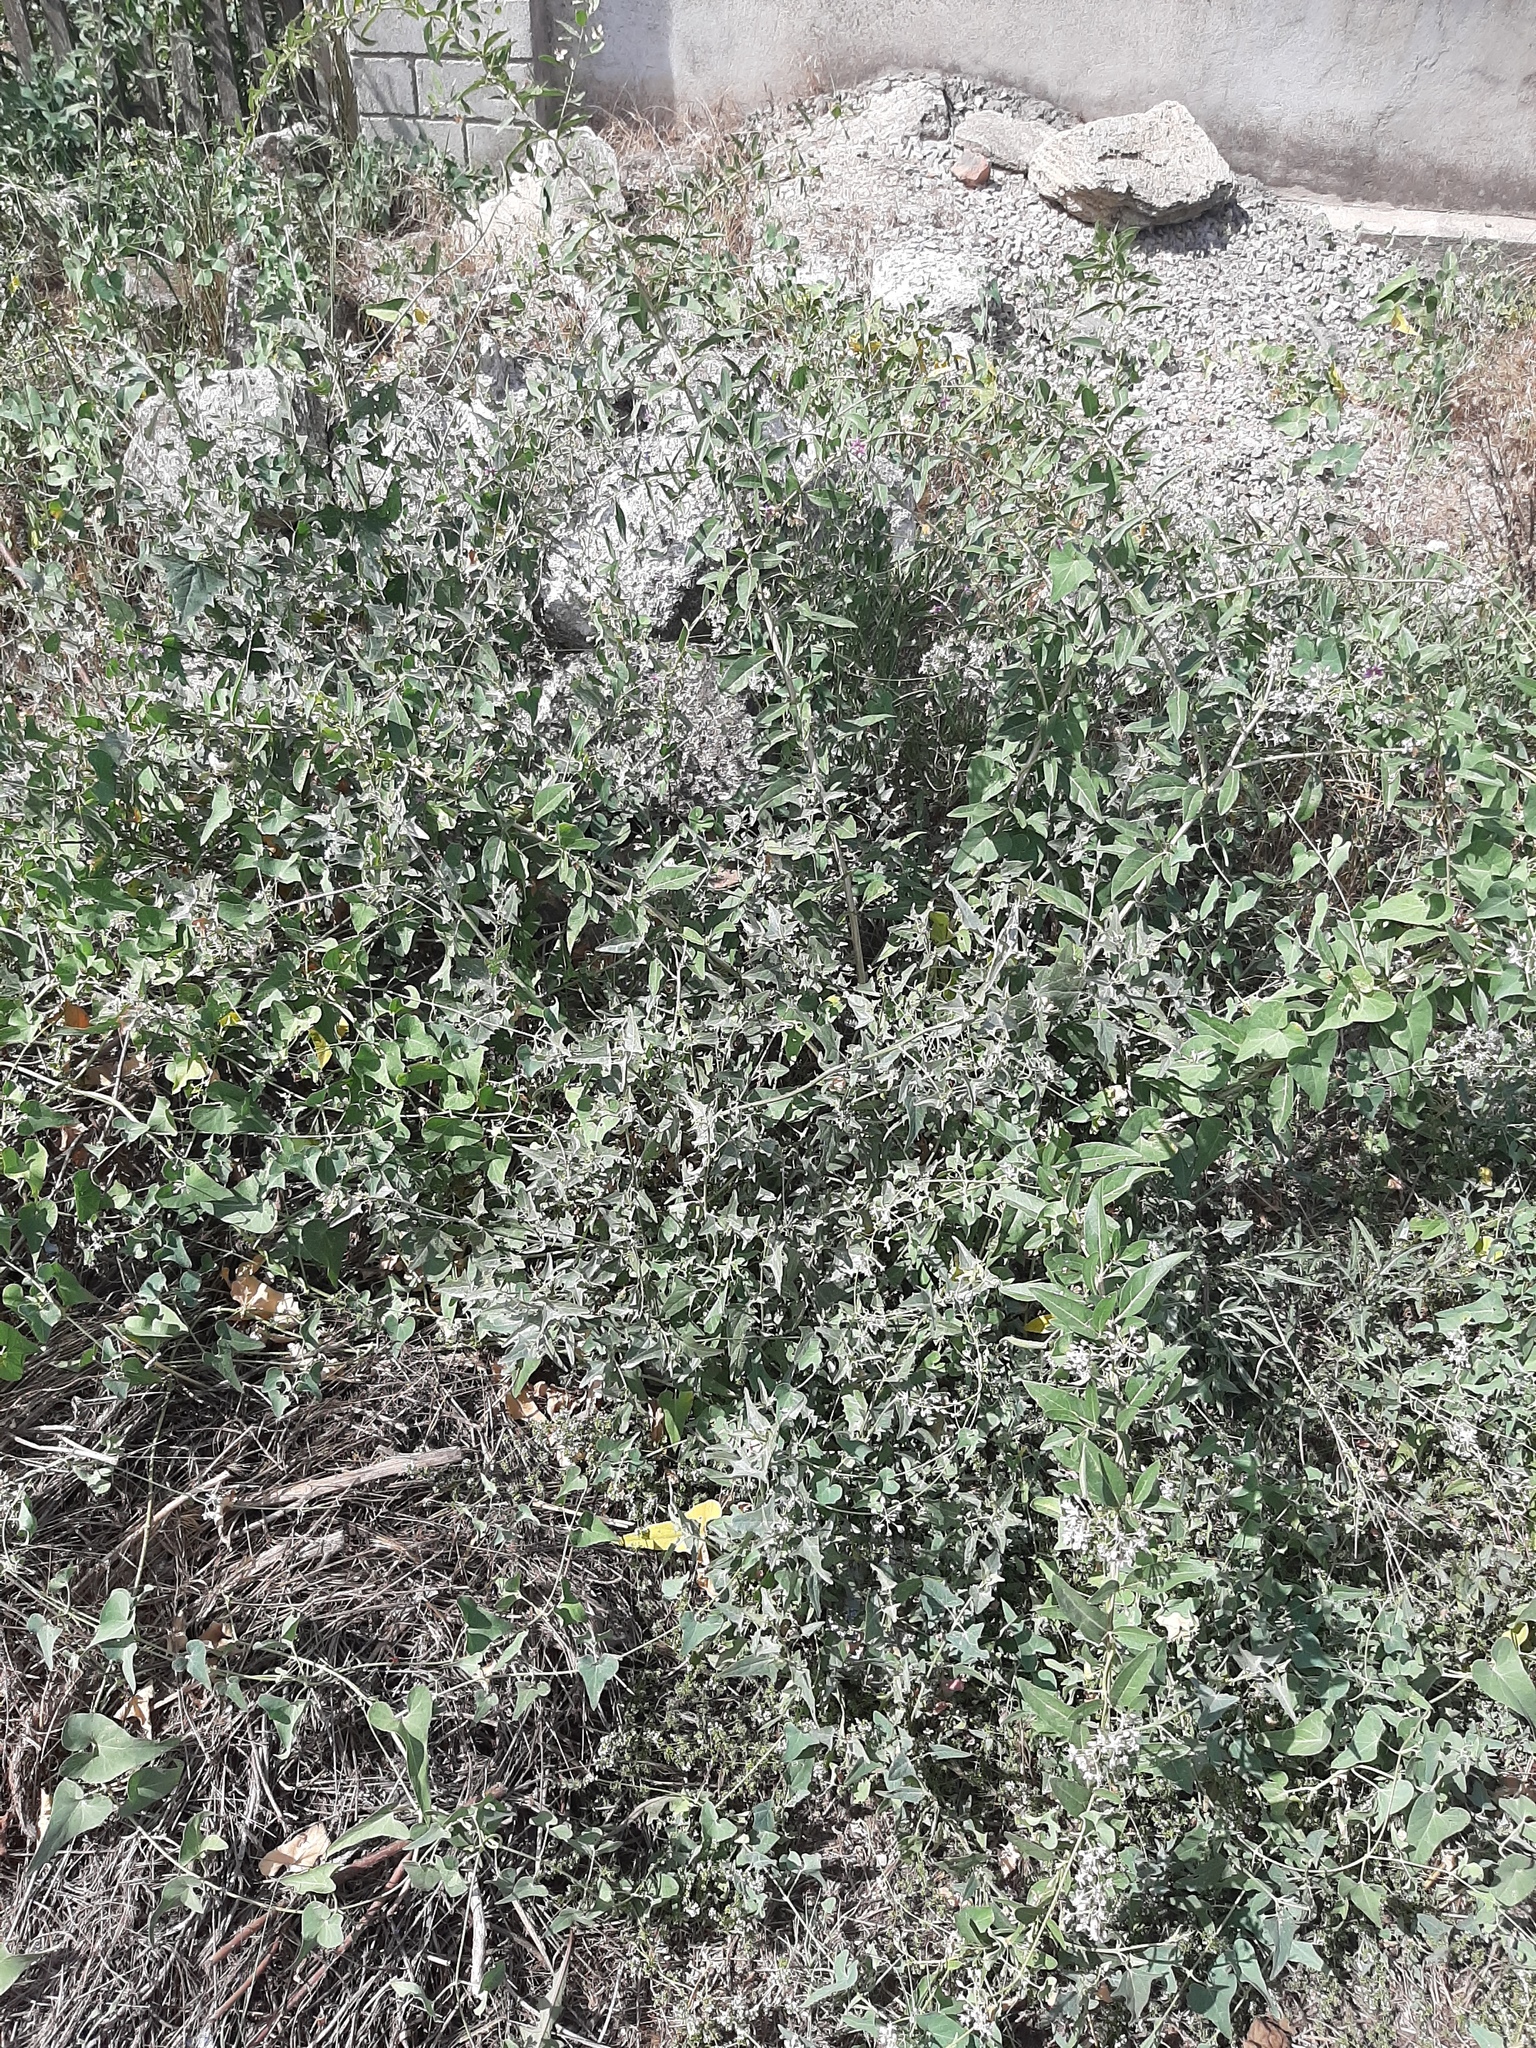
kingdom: Plantae
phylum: Tracheophyta
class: Magnoliopsida
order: Solanales
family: Solanaceae
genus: Lycium
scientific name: Lycium barbarum
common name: Duke of argyll's teaplant
